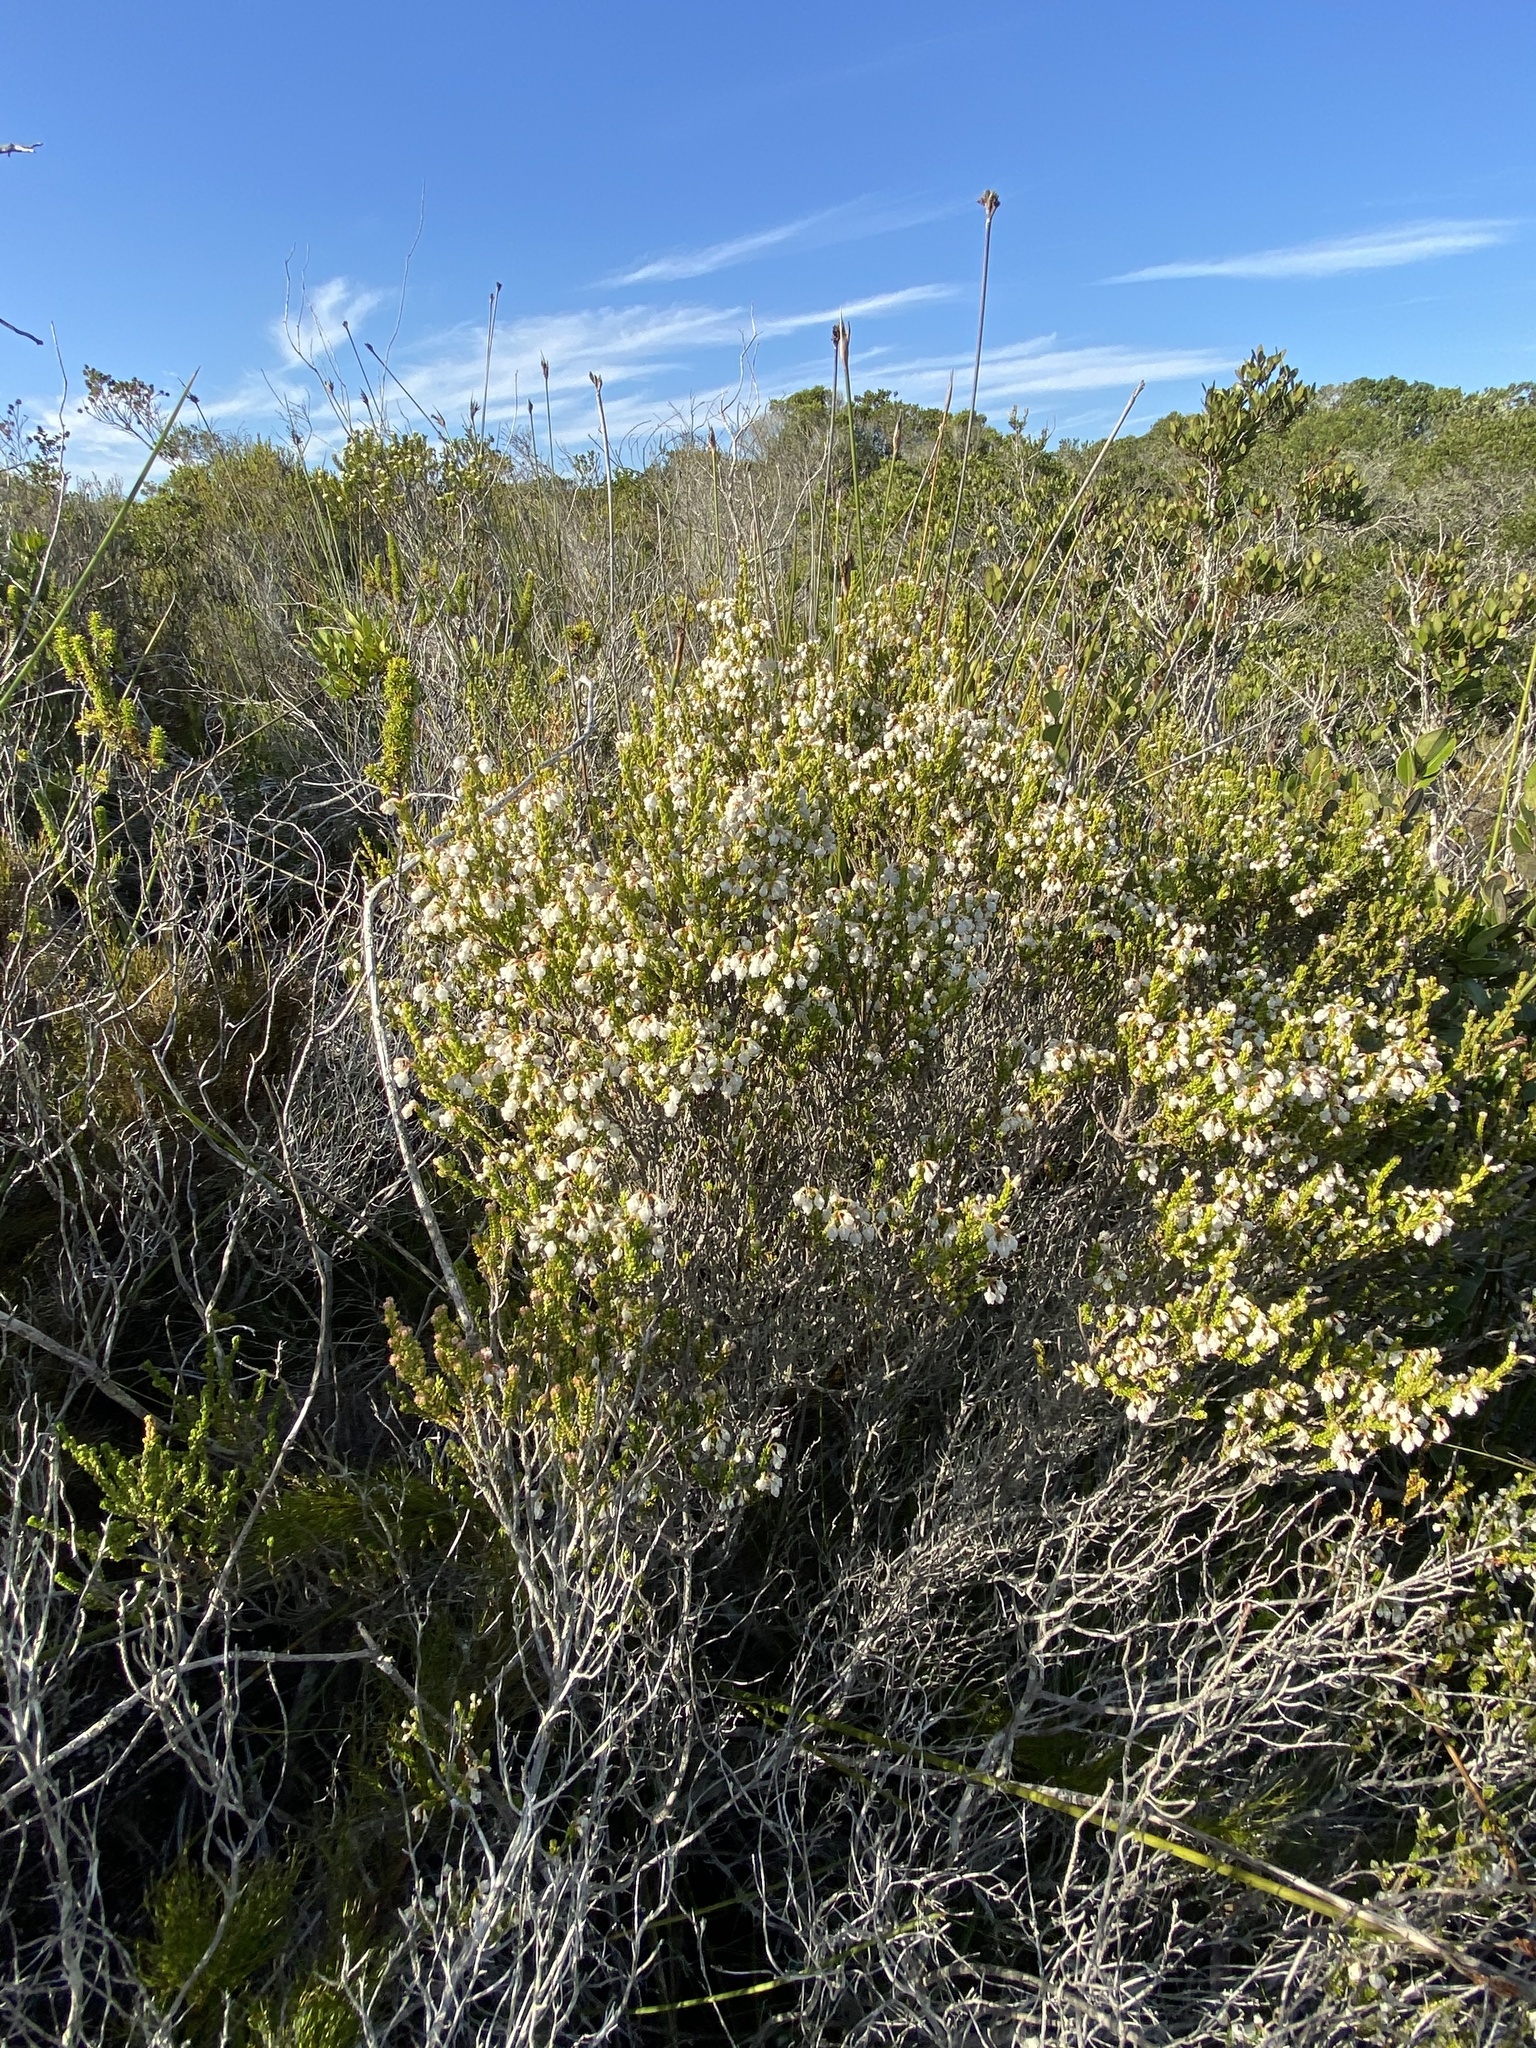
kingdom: Plantae
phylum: Tracheophyta
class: Magnoliopsida
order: Ericales
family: Ericaceae
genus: Erica
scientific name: Erica spectabilis
